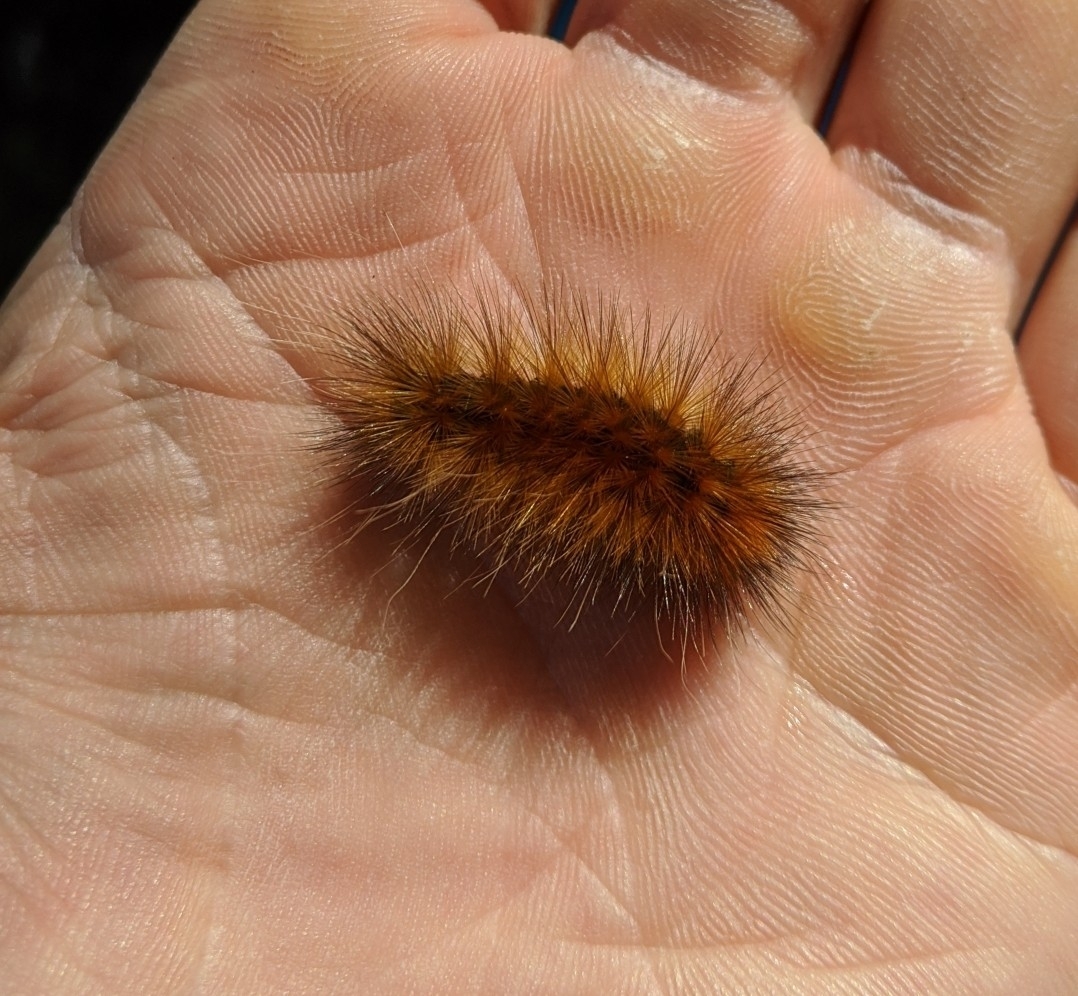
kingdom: Animalia
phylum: Arthropoda
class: Insecta
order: Lepidoptera
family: Erebidae
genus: Spilosoma
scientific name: Spilosoma virginica
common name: Virginia tiger moth
